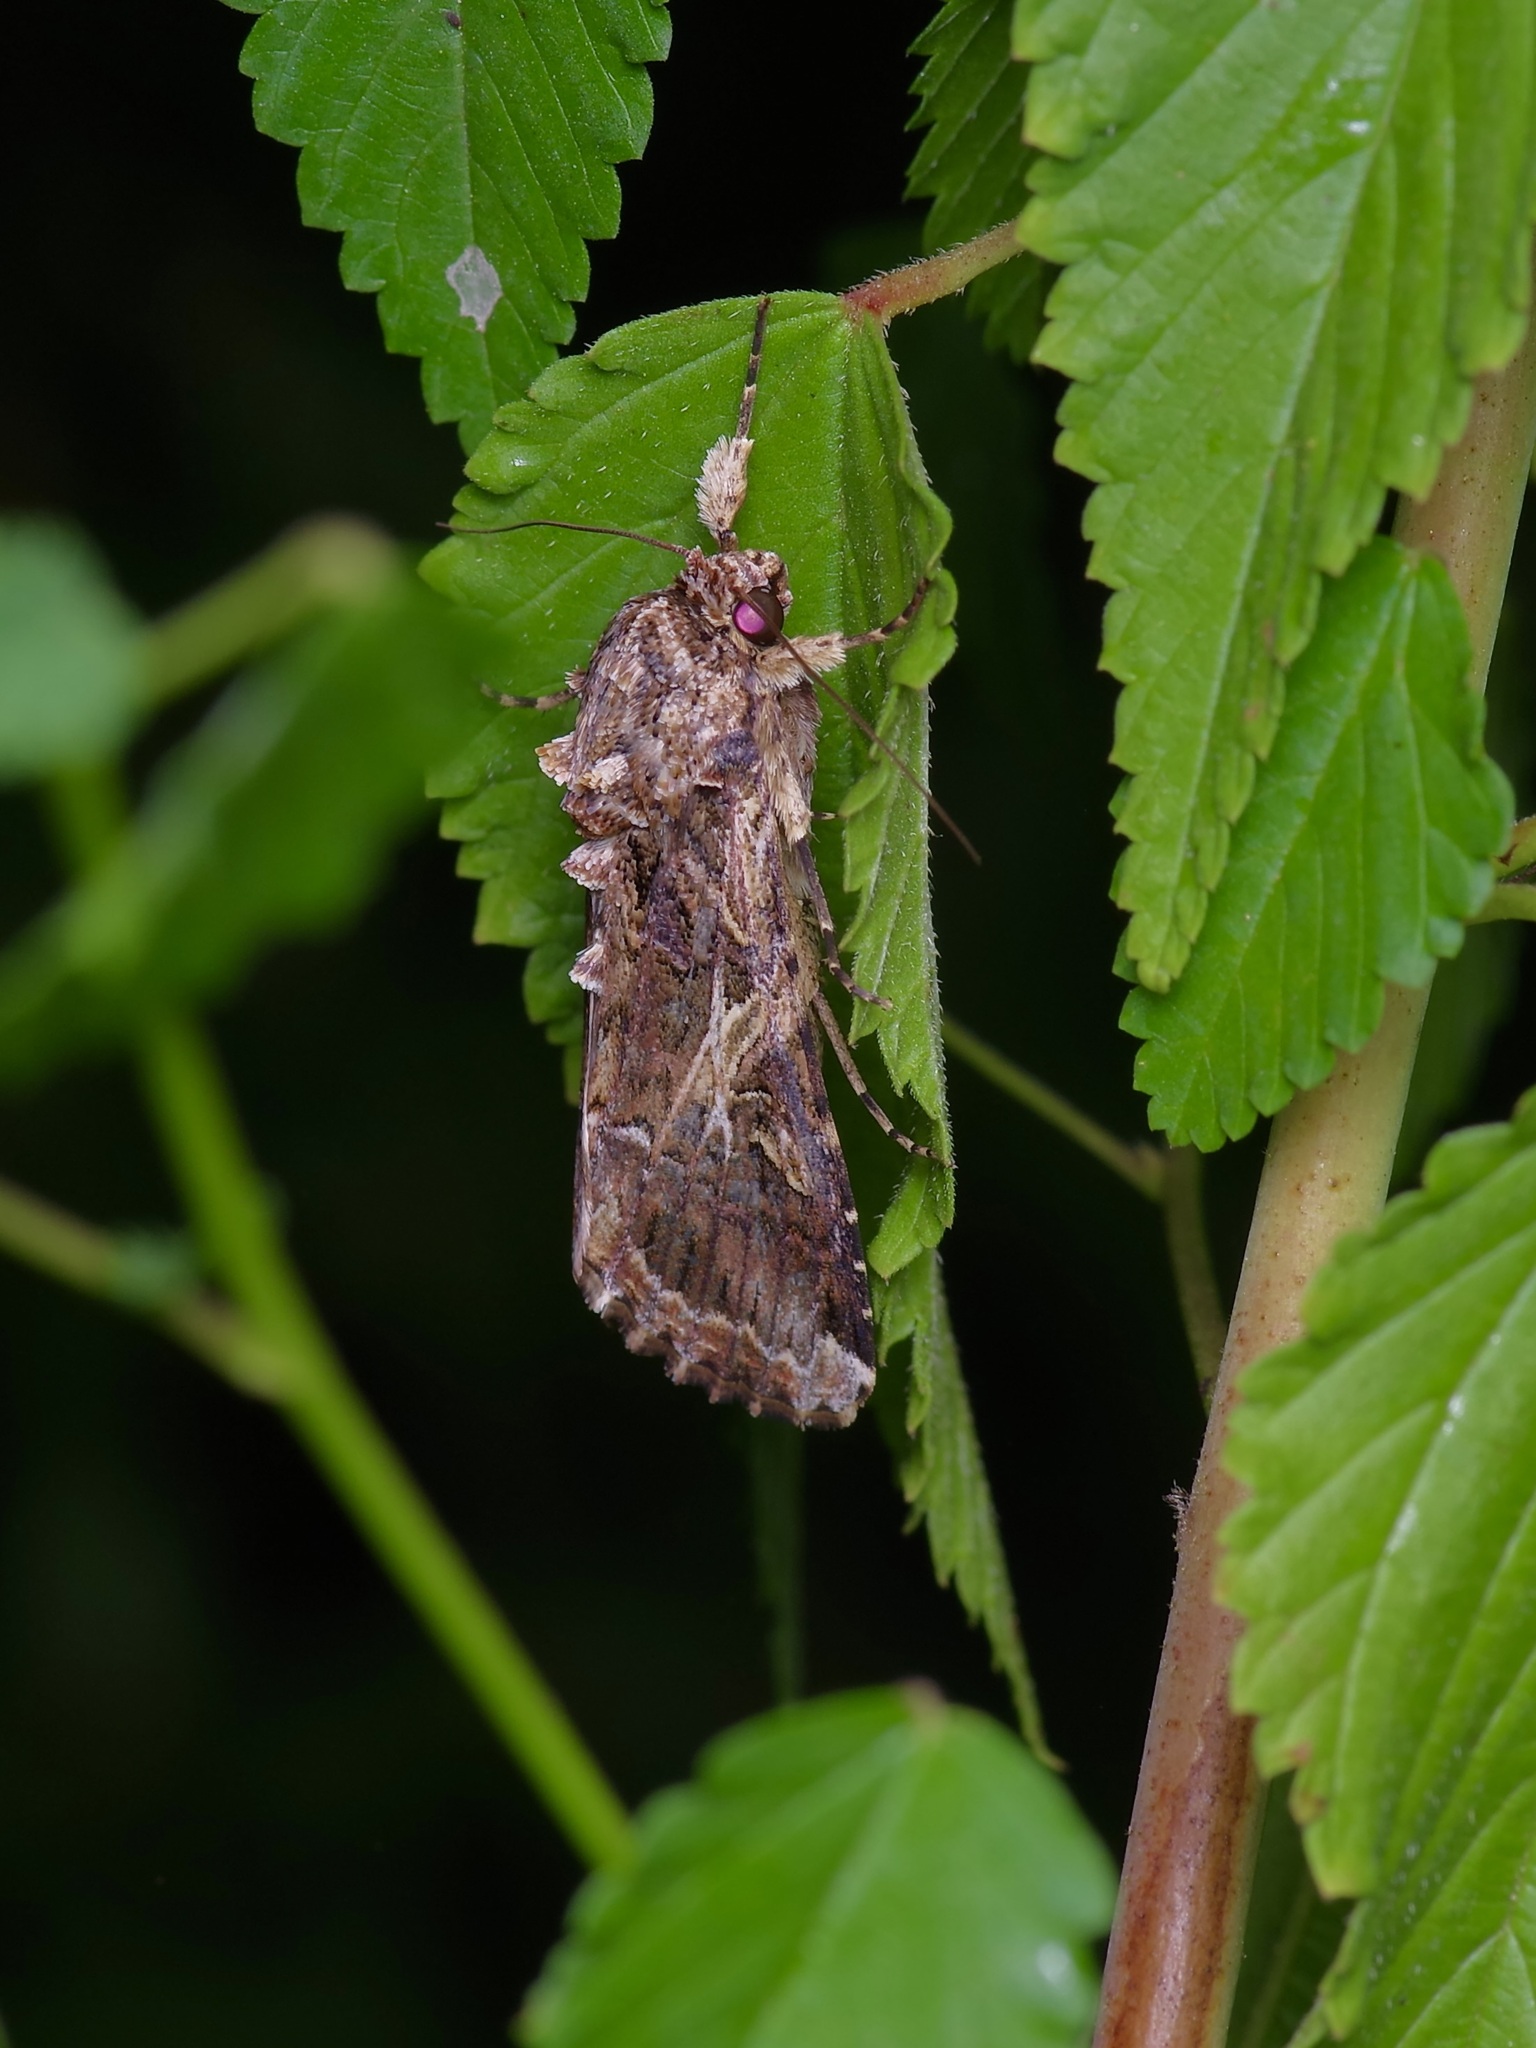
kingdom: Animalia
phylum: Arthropoda
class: Insecta
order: Lepidoptera
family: Noctuidae
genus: Spodoptera
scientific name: Spodoptera ornithogalli
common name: Yellow-striped armyworm
